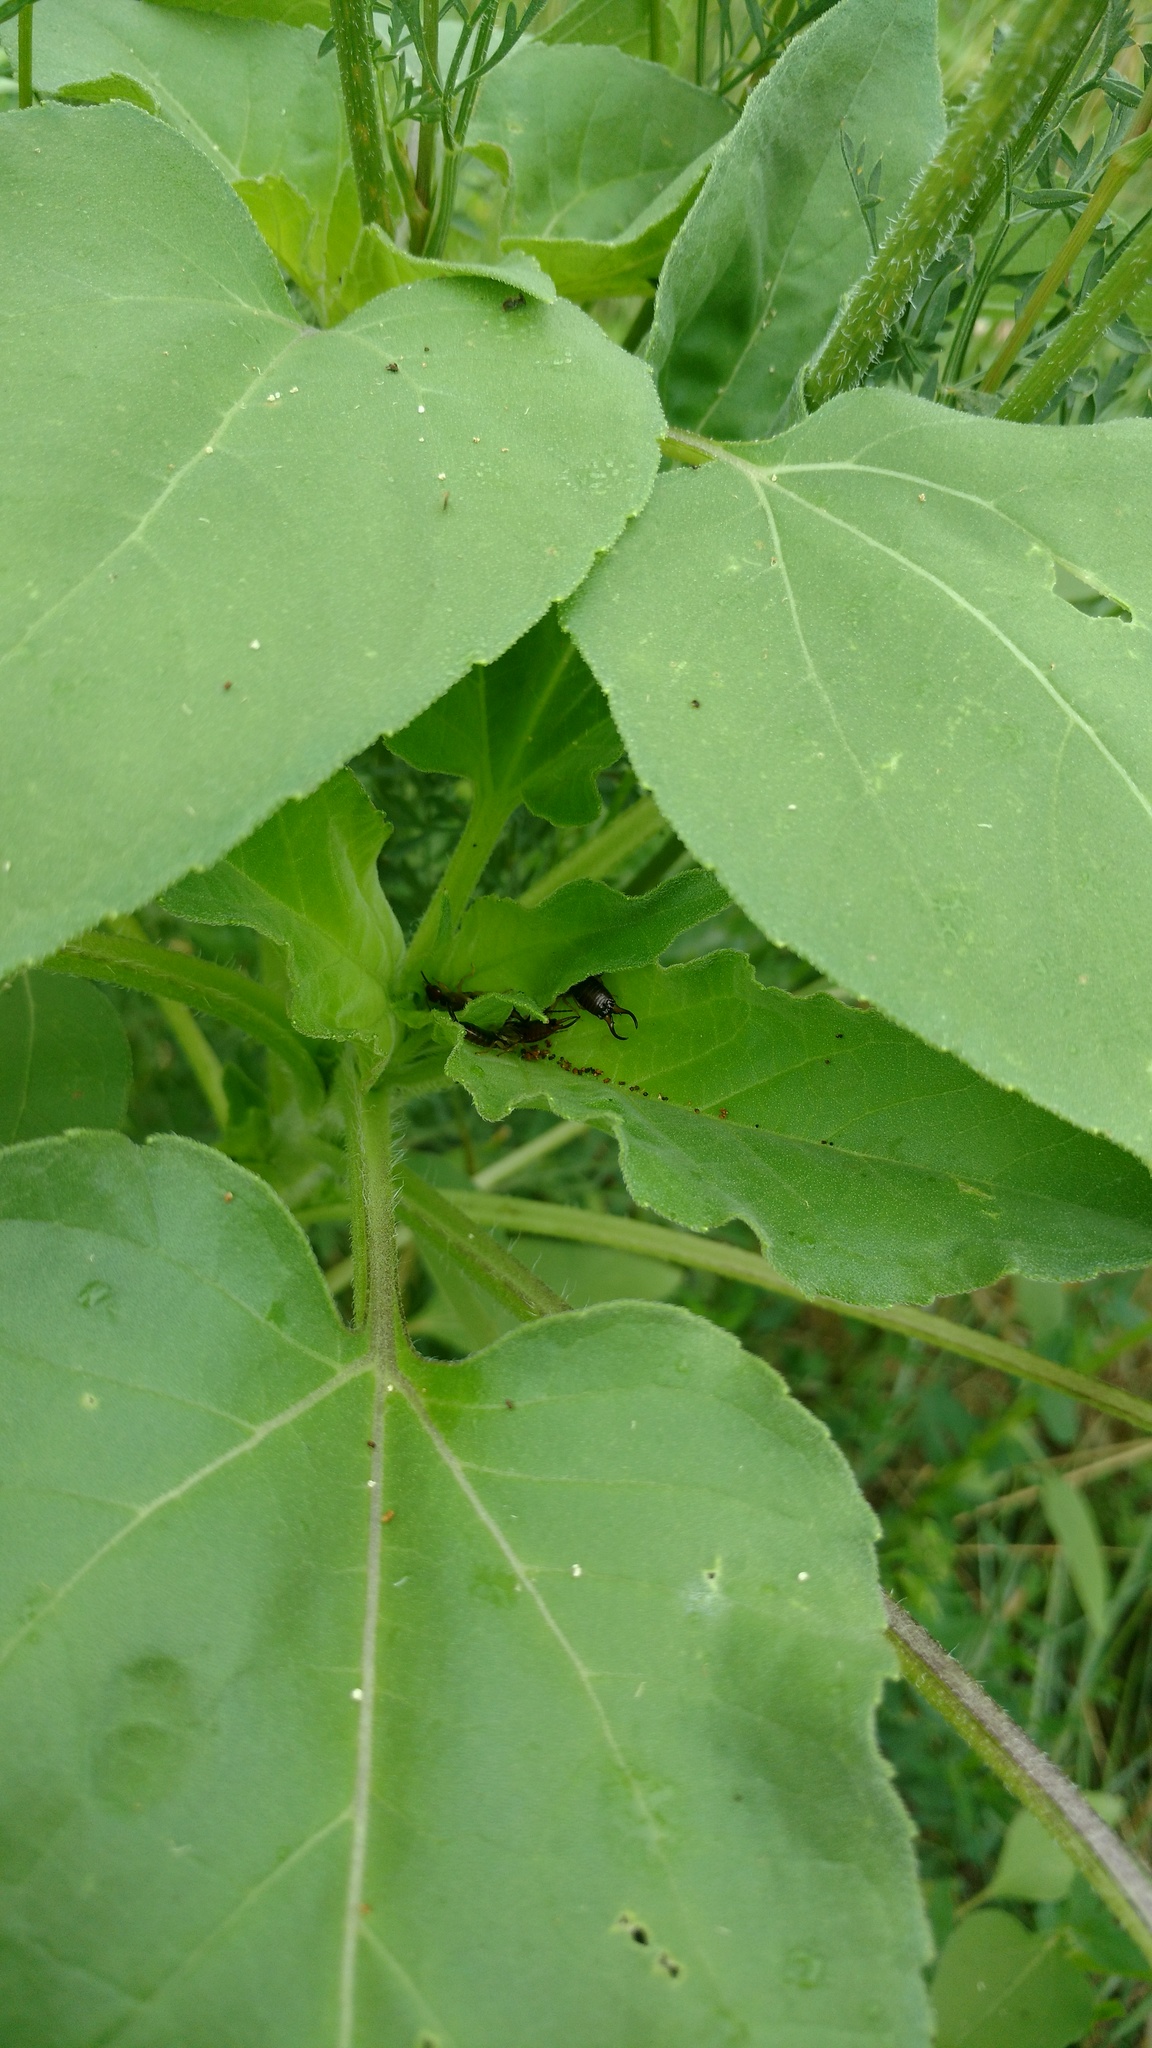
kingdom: Animalia
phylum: Arthropoda
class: Insecta
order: Dermaptera
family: Forficulidae
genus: Forficula
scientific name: Forficula
